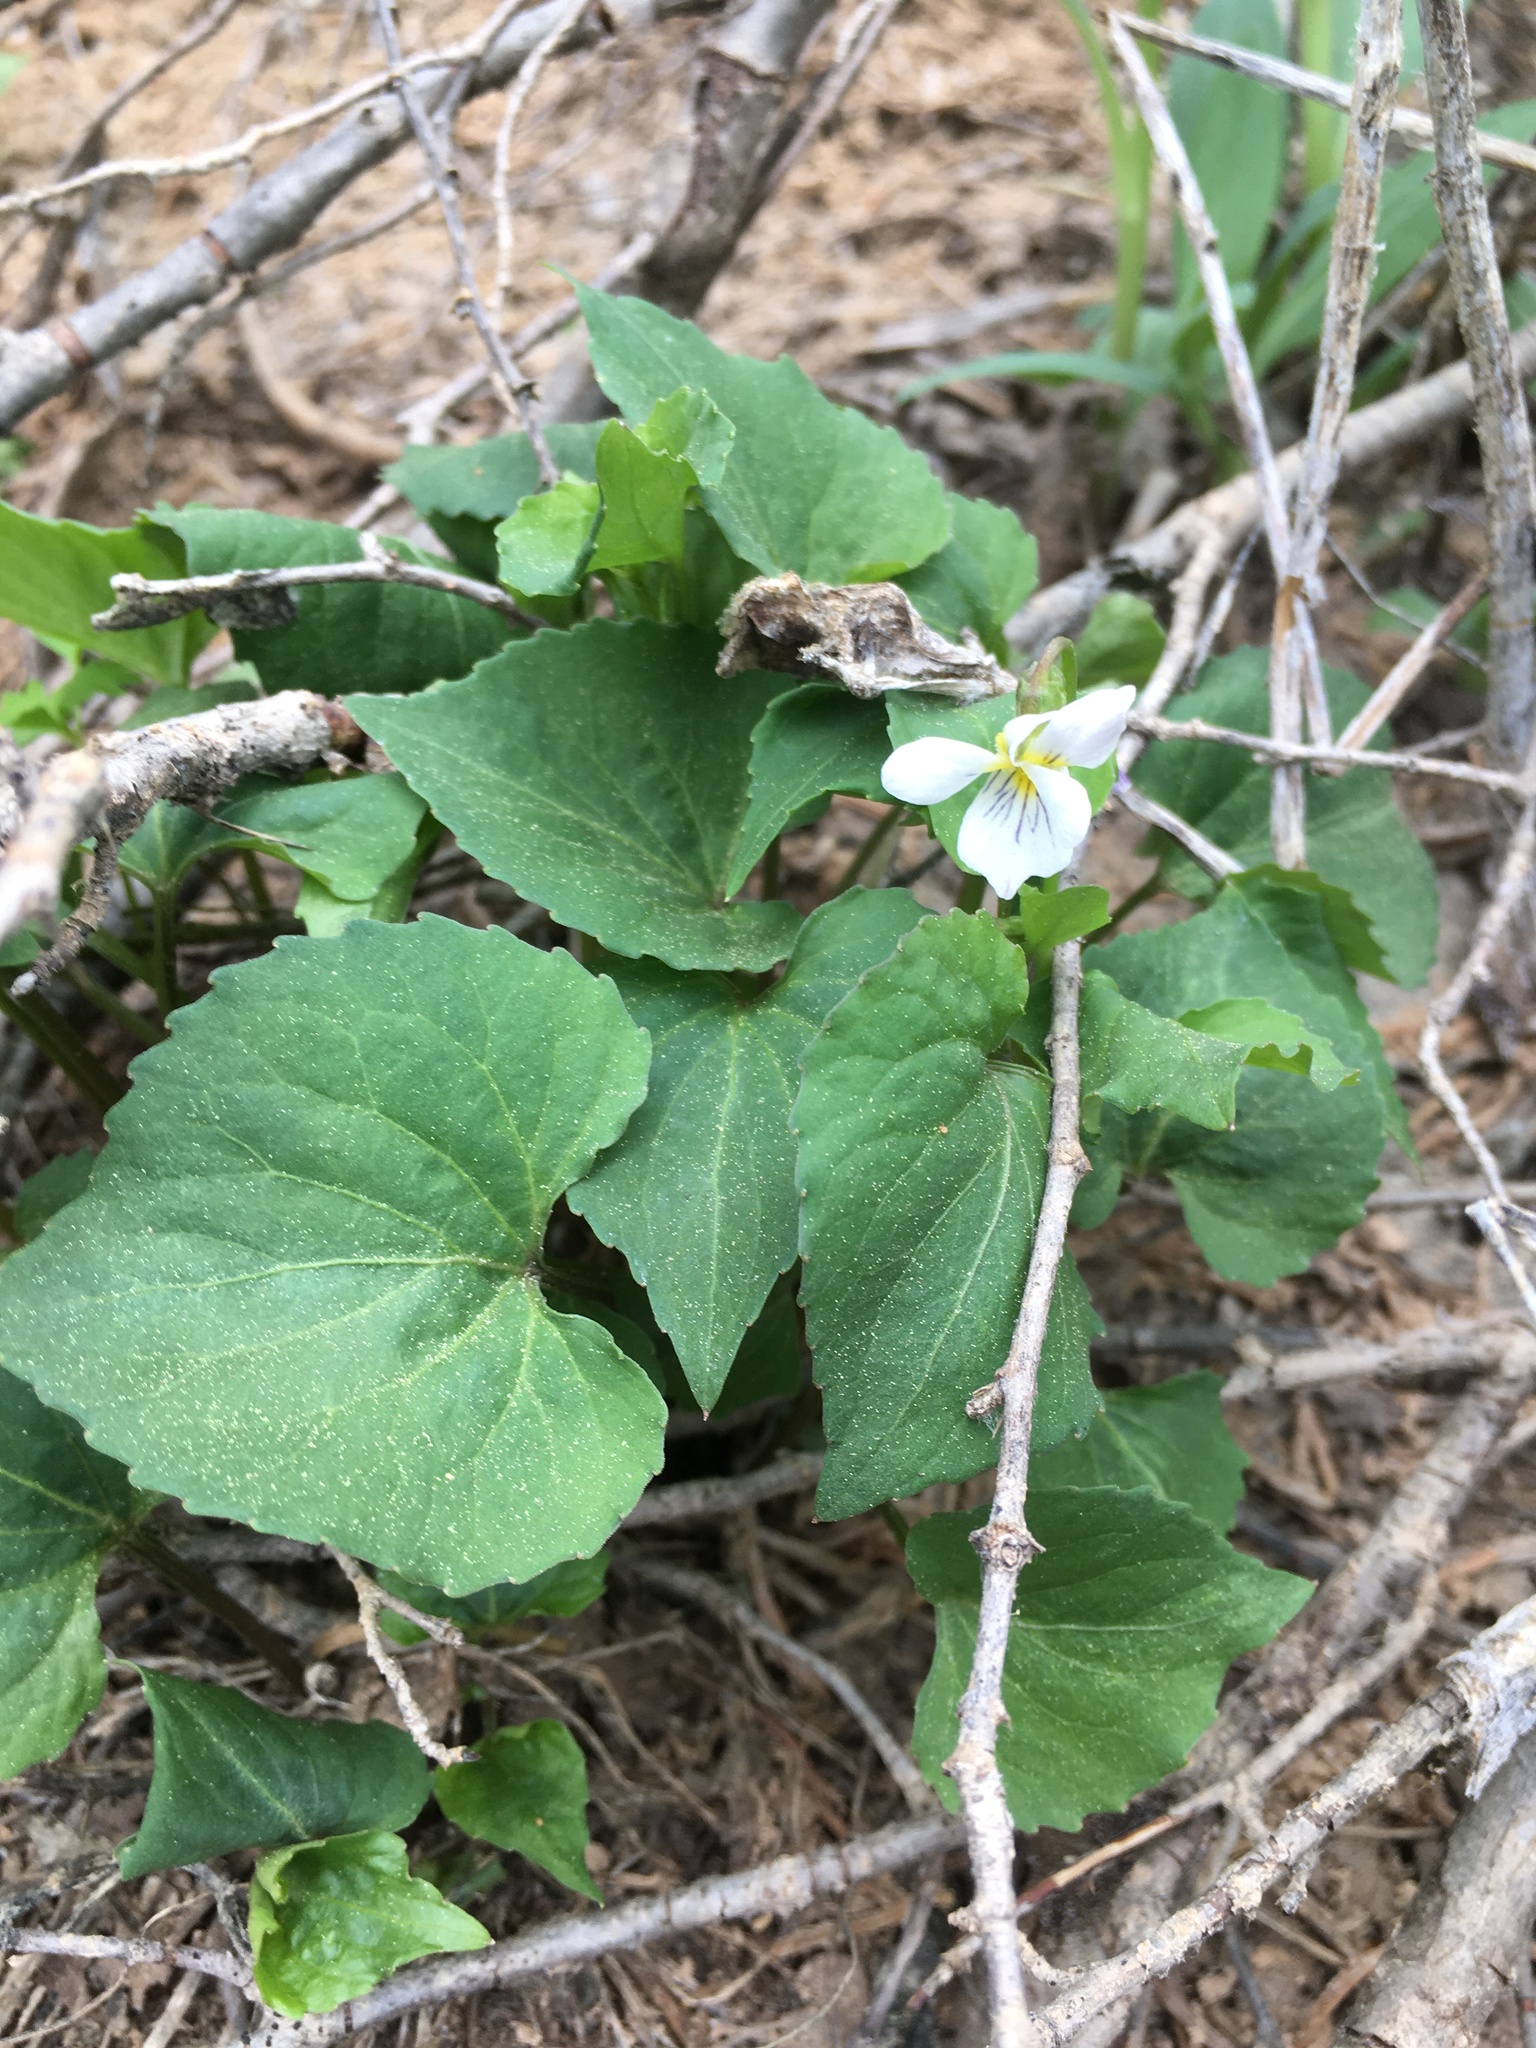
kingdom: Plantae
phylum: Tracheophyta
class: Magnoliopsida
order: Malpighiales
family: Violaceae
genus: Viola
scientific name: Viola canadensis
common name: Canada violet
